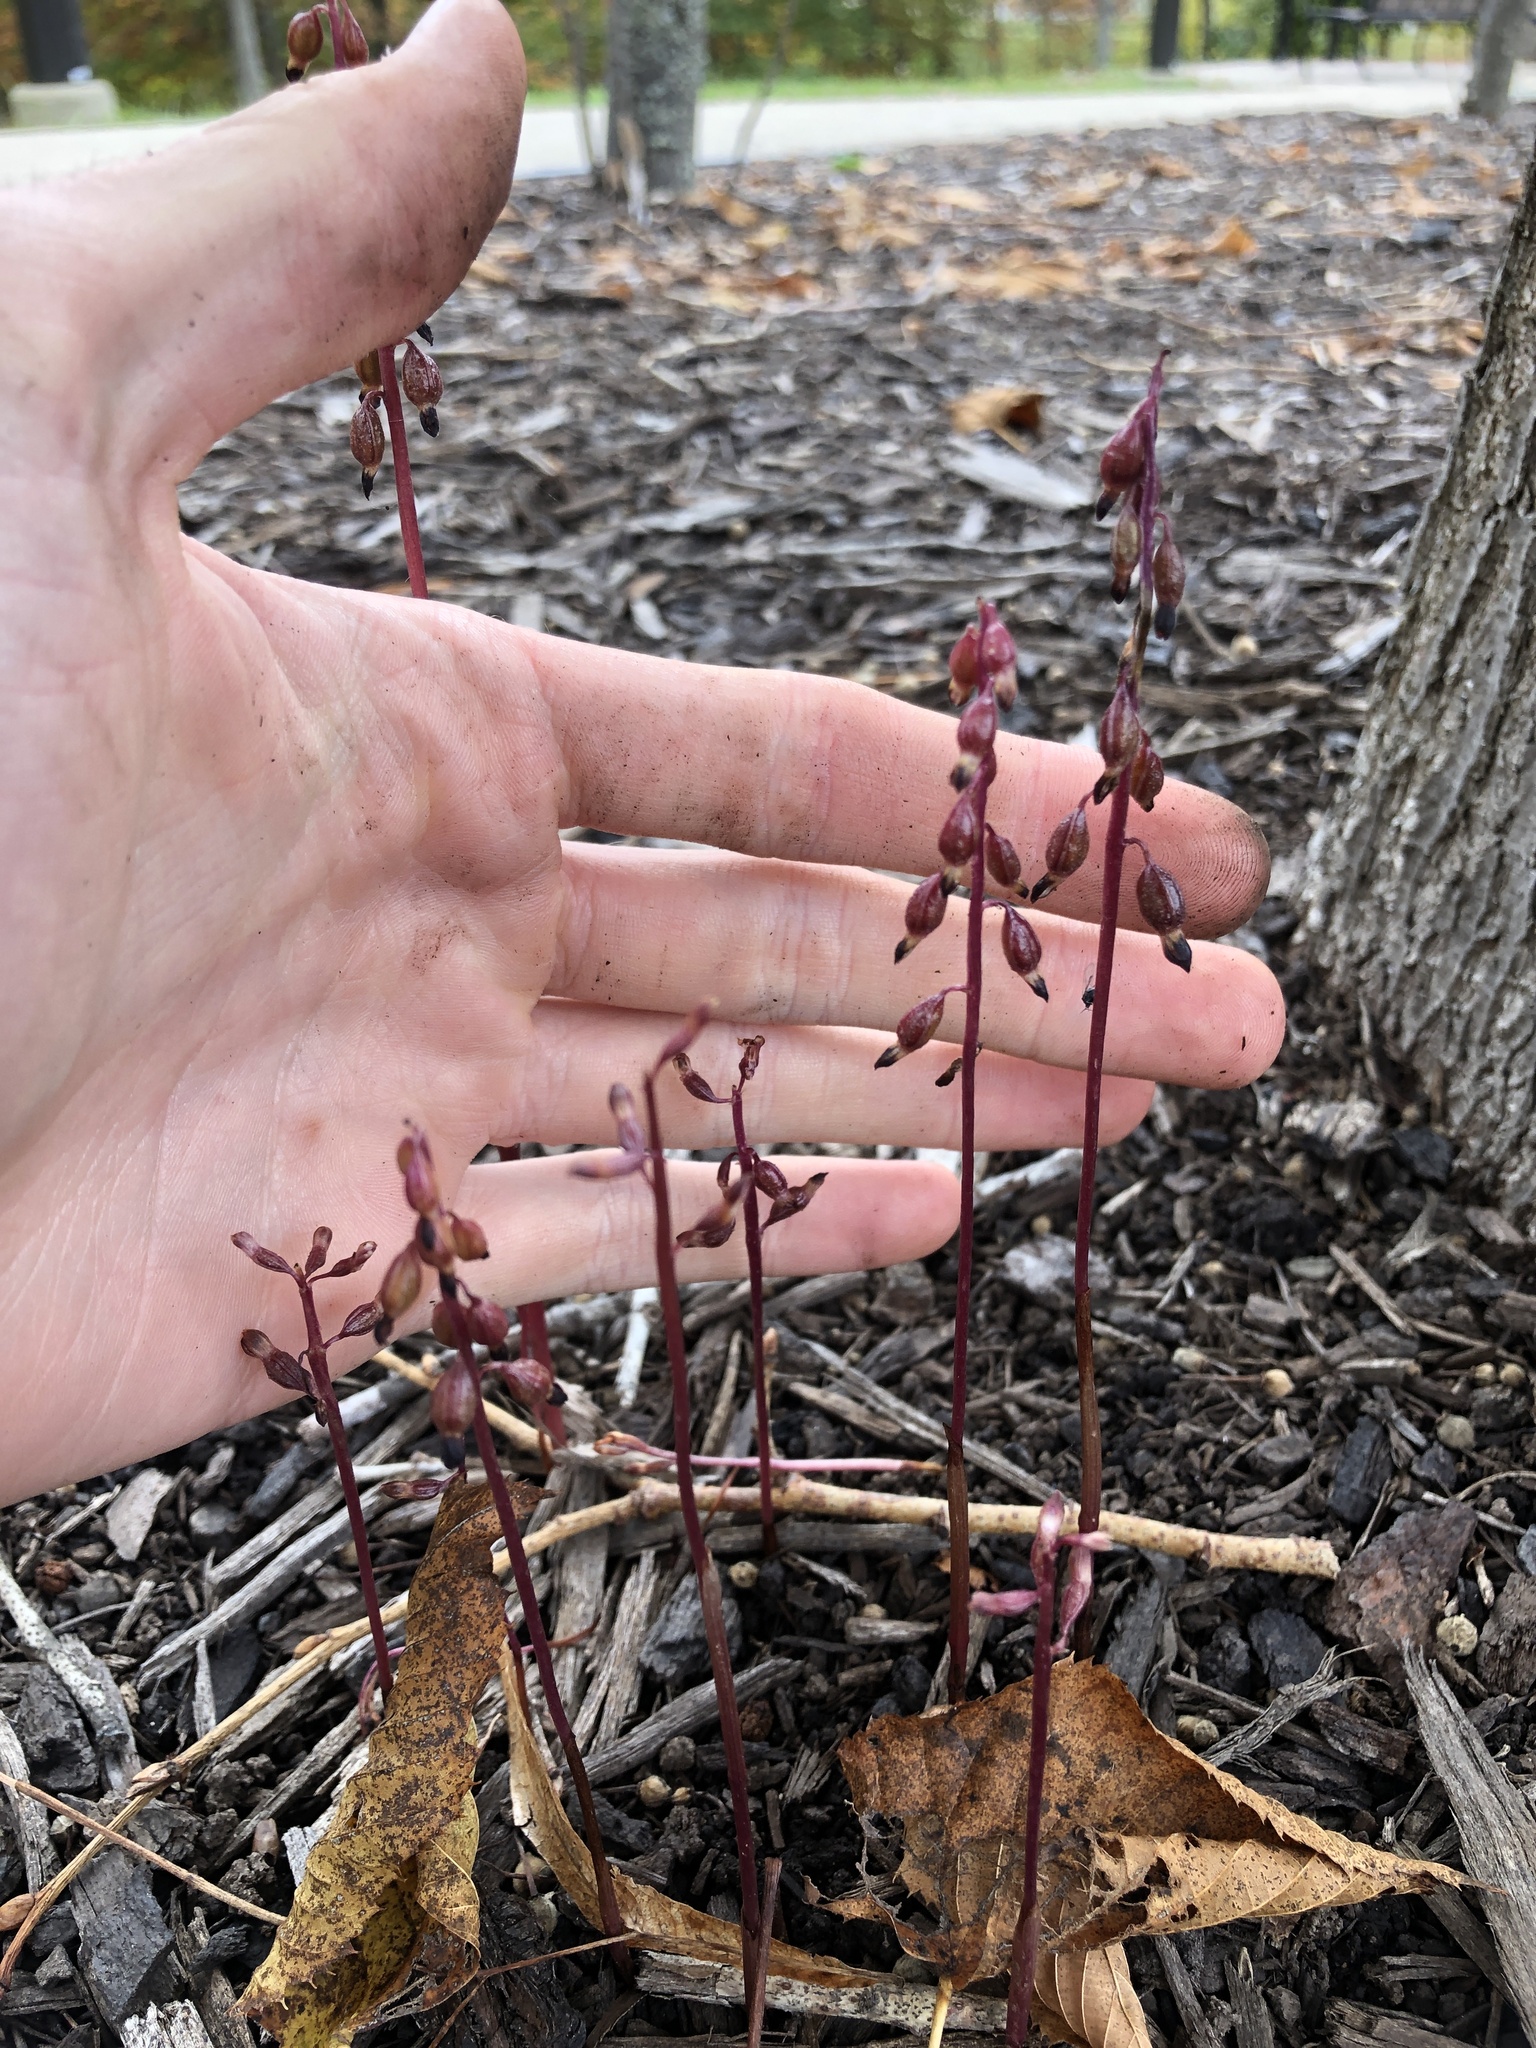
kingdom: Plantae
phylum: Tracheophyta
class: Liliopsida
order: Asparagales
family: Orchidaceae
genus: Corallorhiza
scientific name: Corallorhiza odontorhiza
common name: Autumn coralroot
